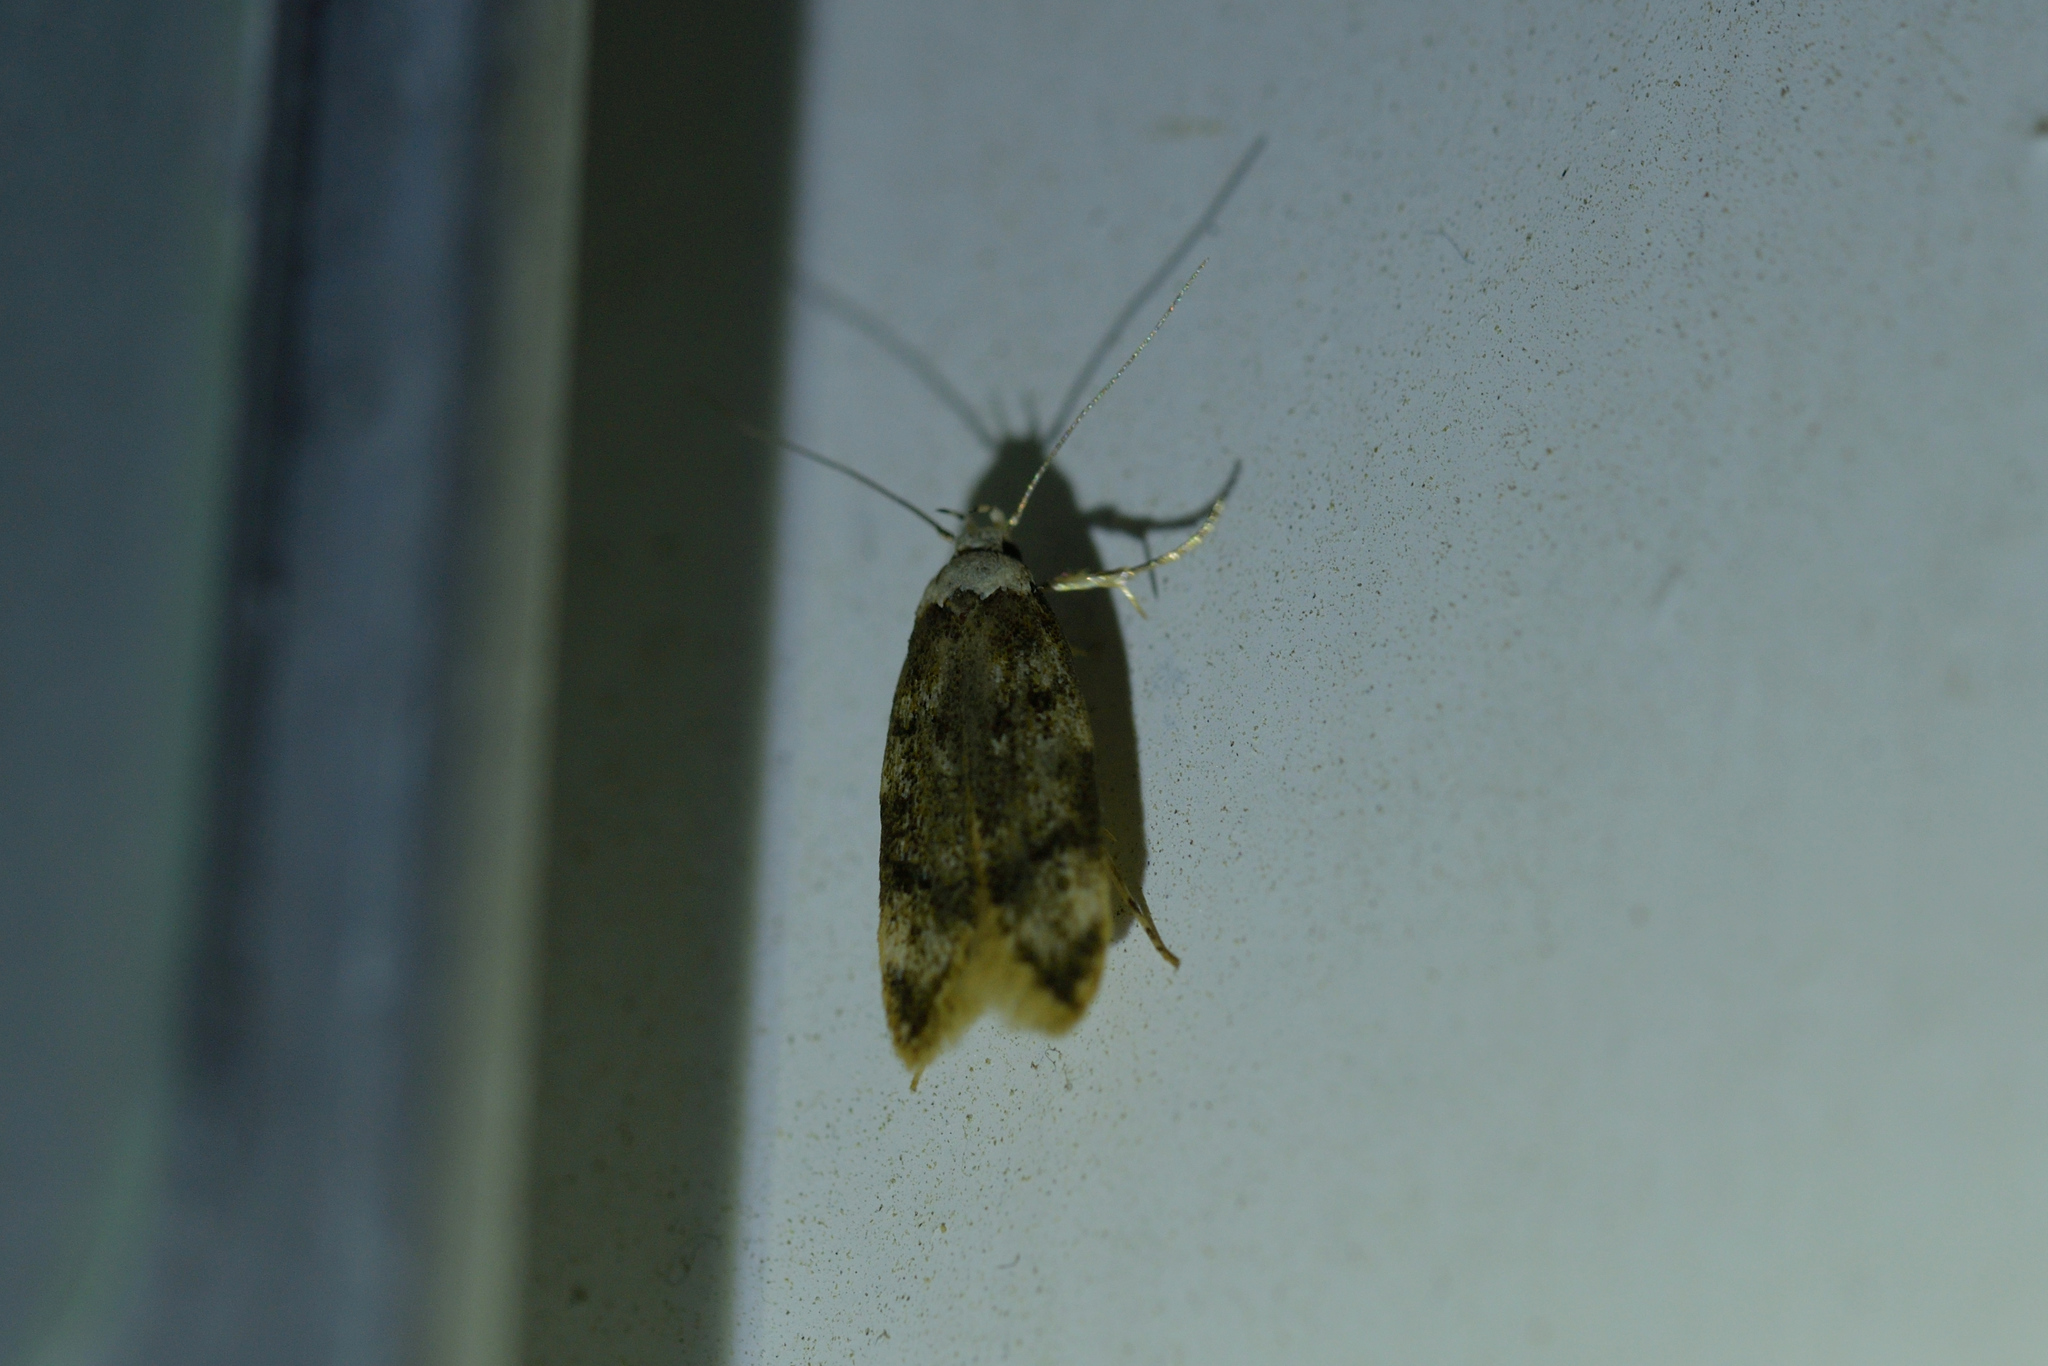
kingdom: Animalia
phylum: Arthropoda
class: Insecta
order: Lepidoptera
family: Oecophoridae
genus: Endrosis
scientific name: Endrosis sarcitrella
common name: White-shouldered house moth
